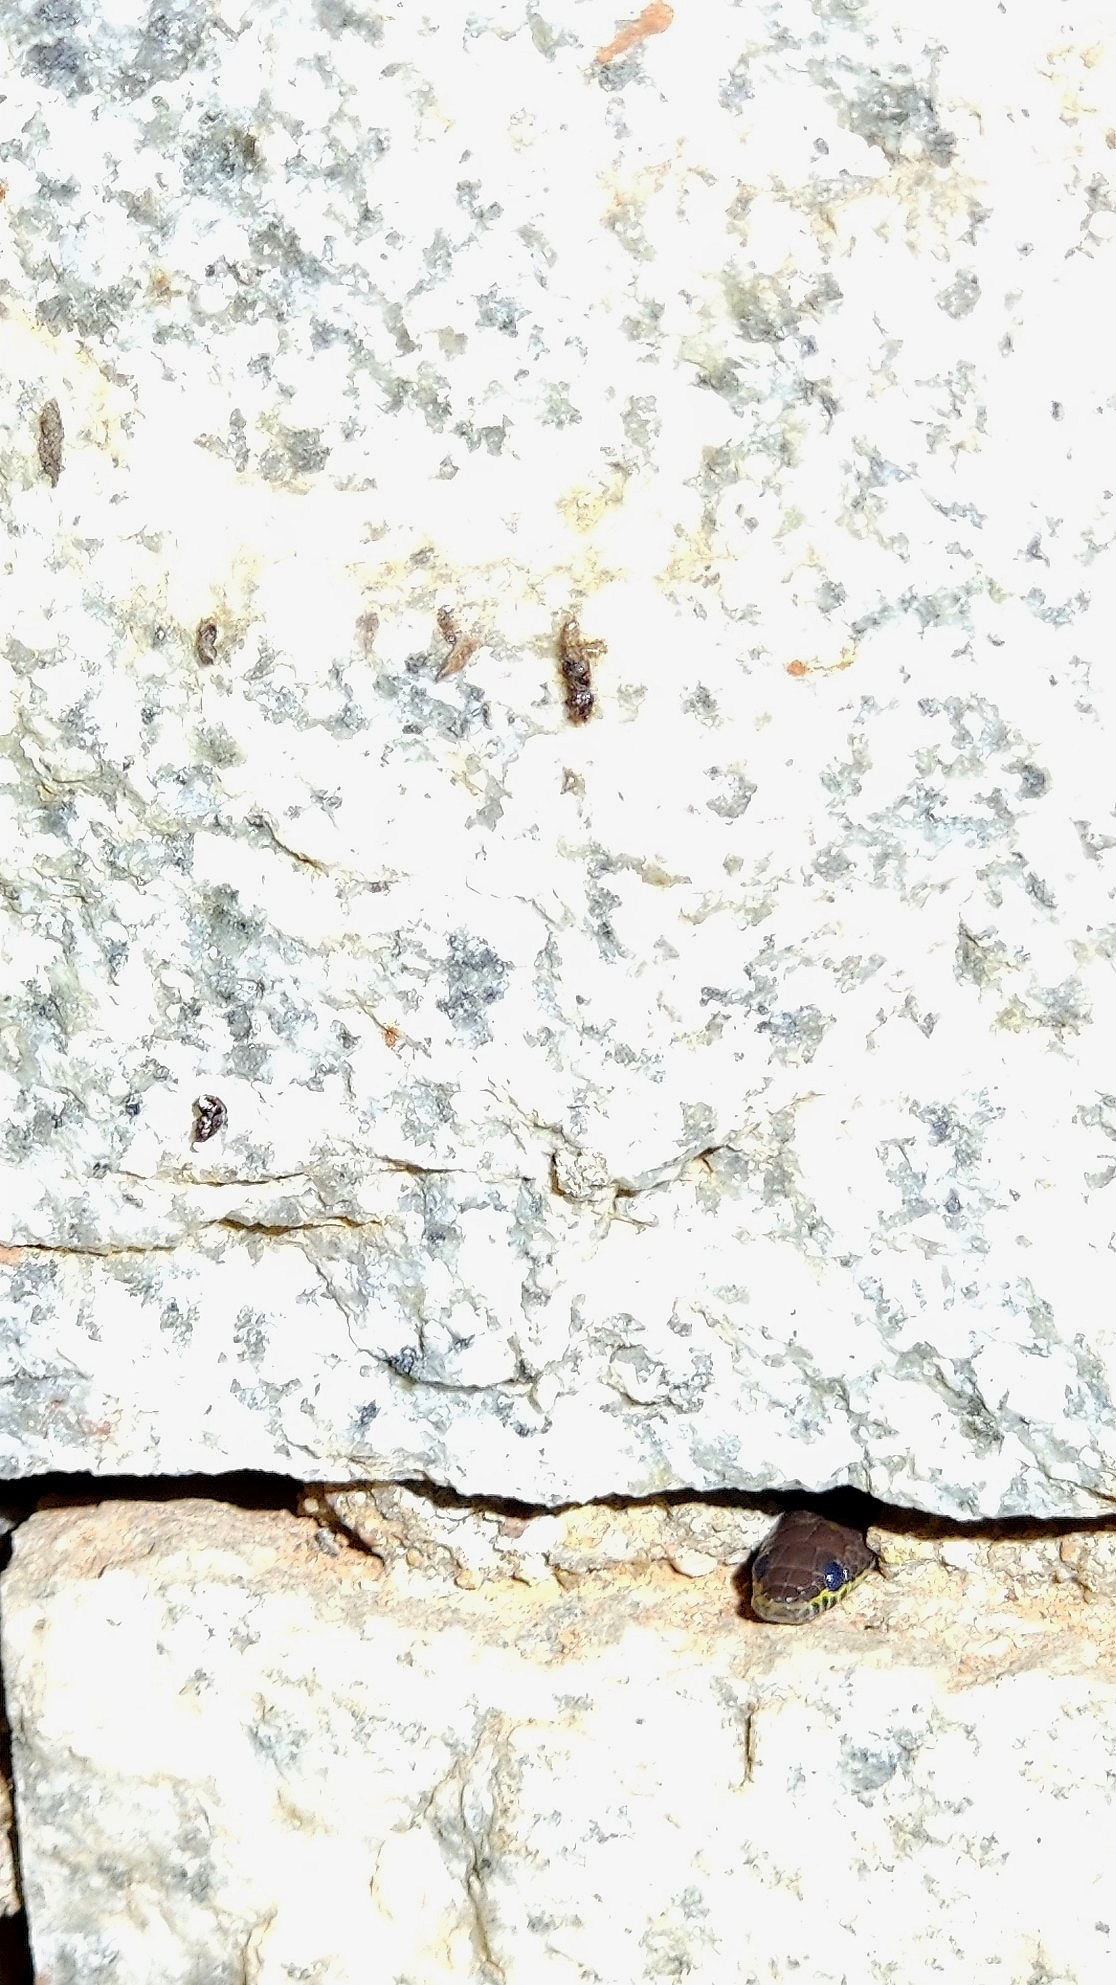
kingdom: Animalia
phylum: Chordata
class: Squamata
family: Colubridae
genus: Lycodon
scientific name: Lycodon fasciolatus
